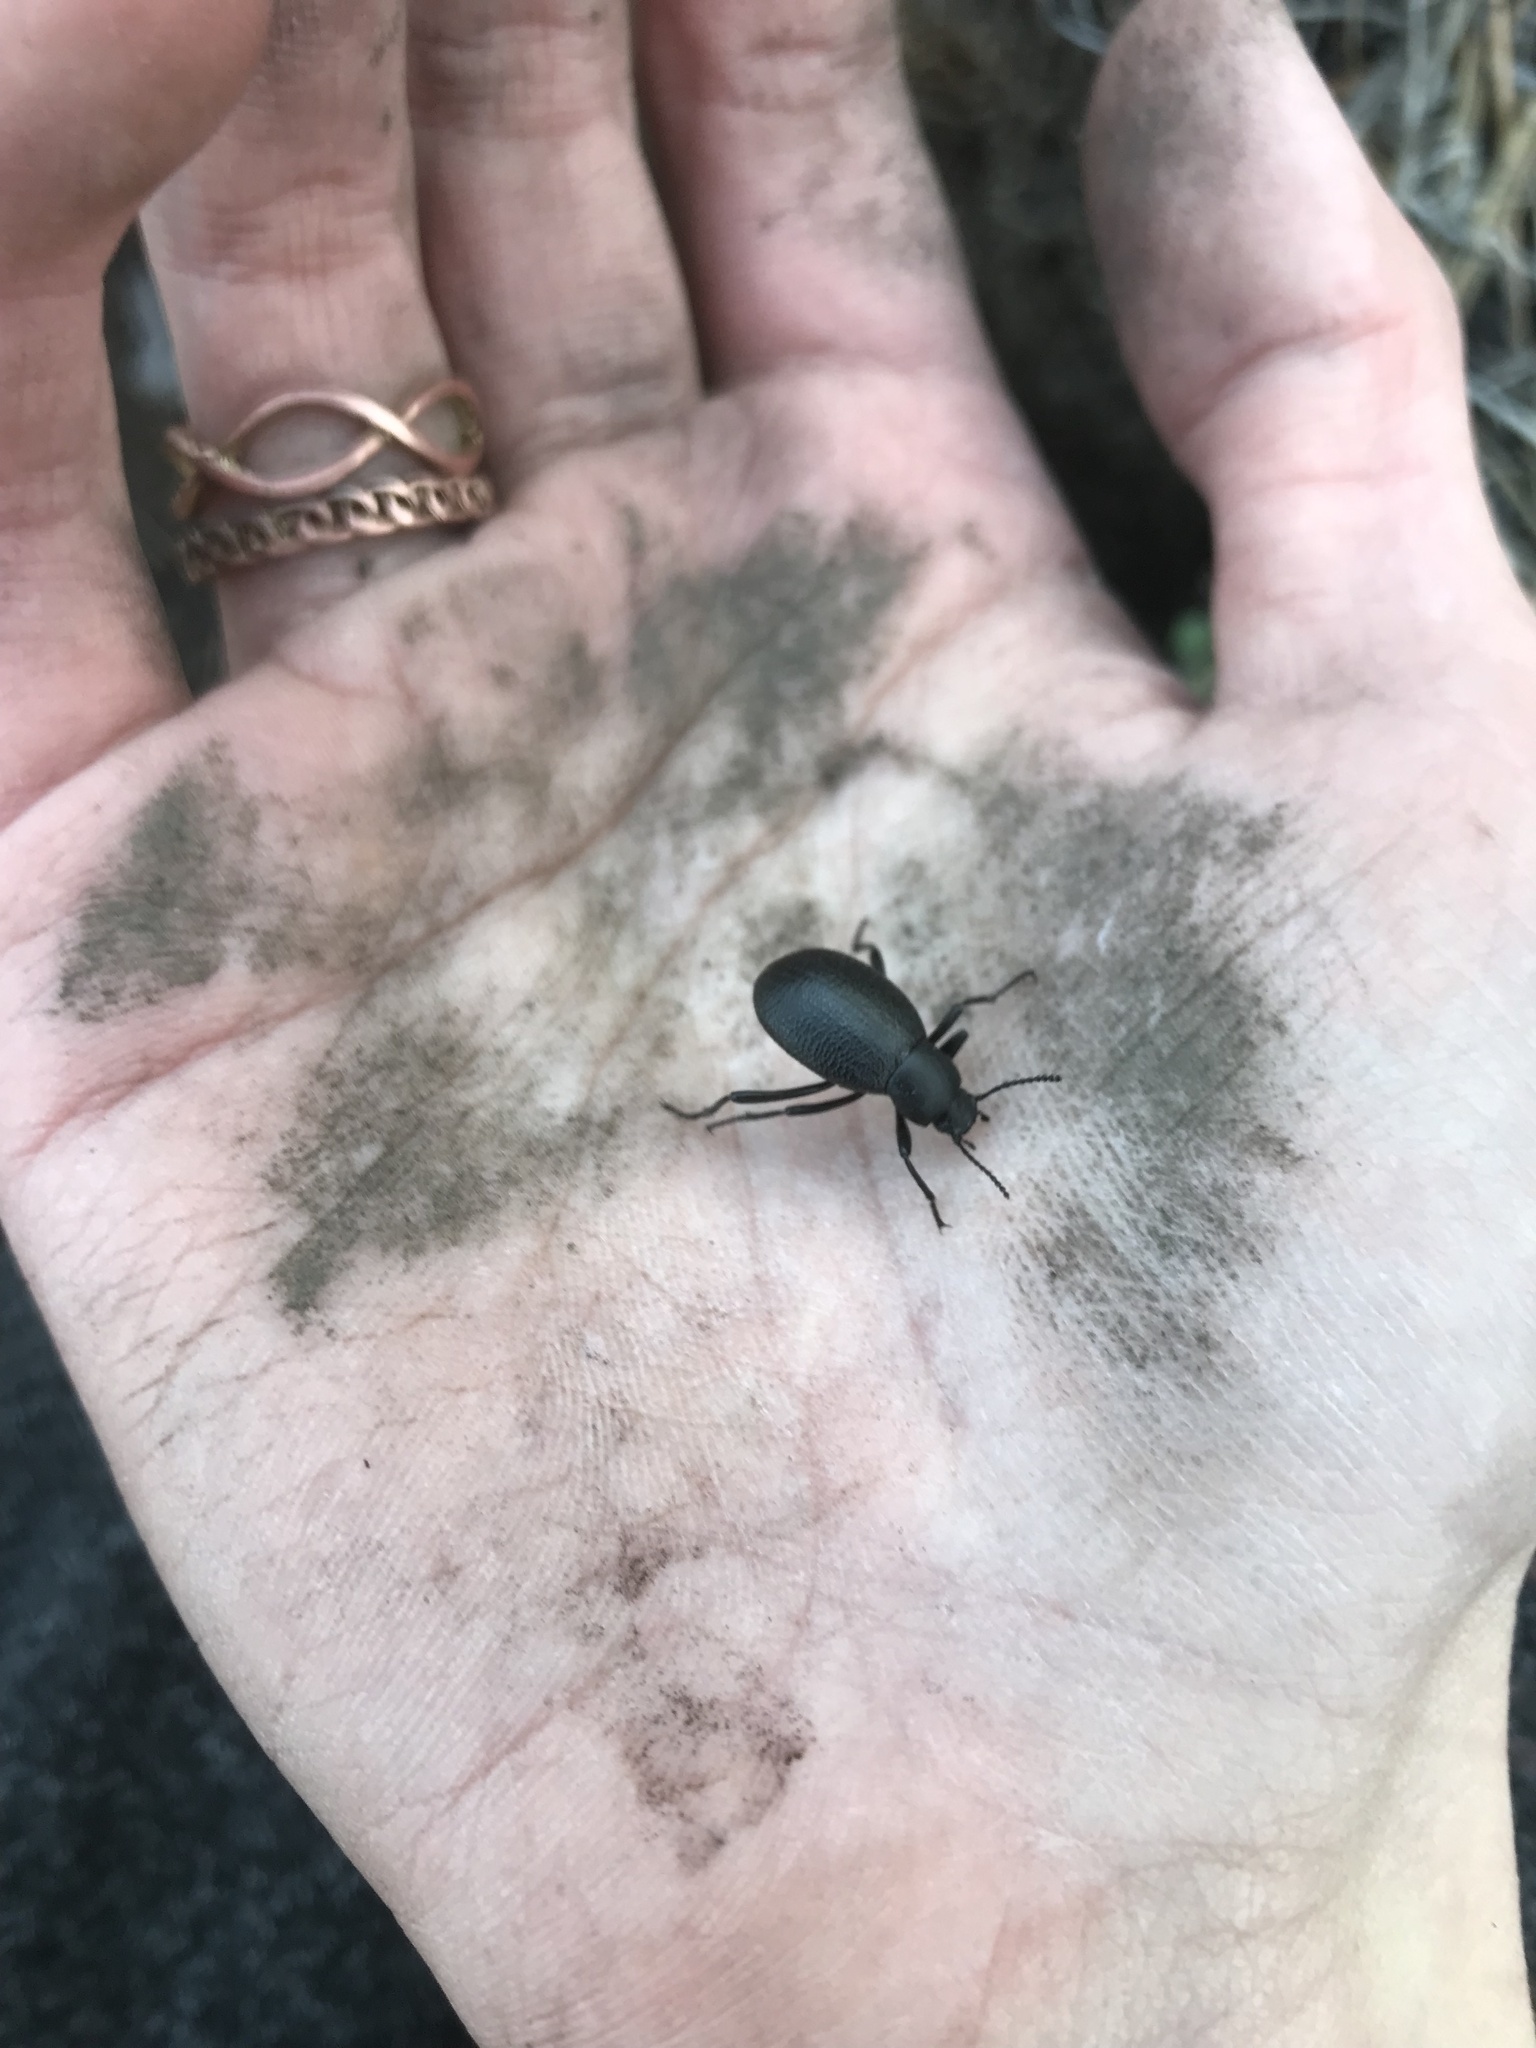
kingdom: Animalia
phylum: Arthropoda
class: Insecta
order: Coleoptera
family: Tenebrionidae
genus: Eleodes
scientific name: Eleodes granulata
